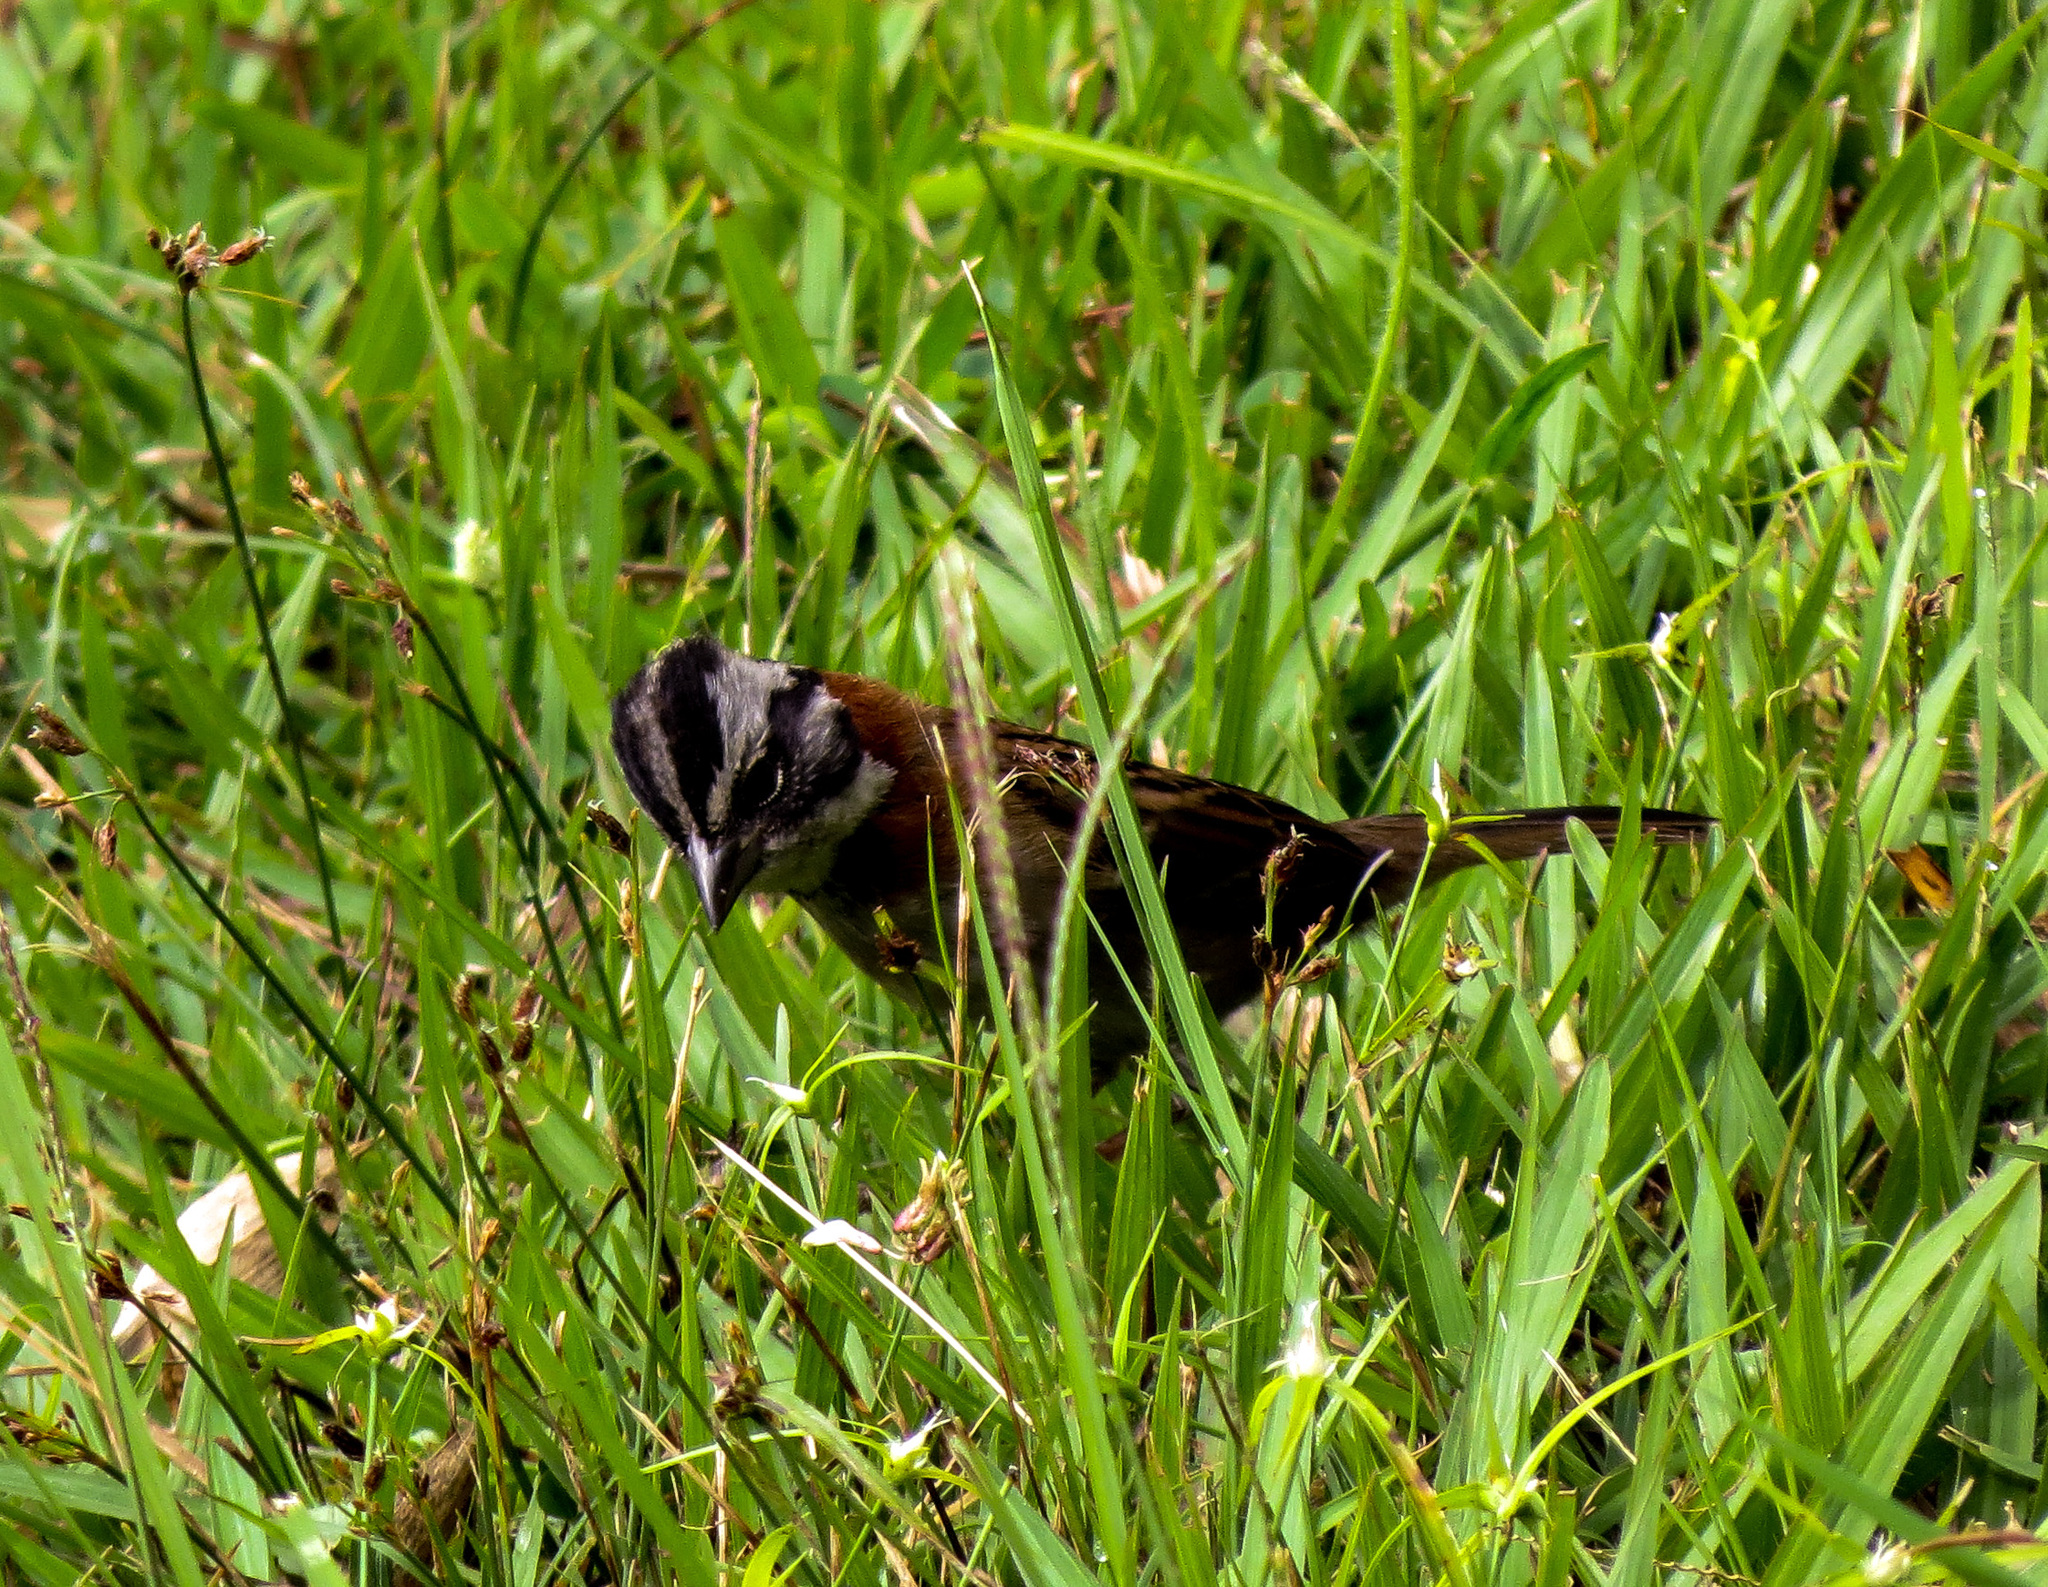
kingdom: Animalia
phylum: Chordata
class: Aves
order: Passeriformes
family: Passerellidae
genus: Zonotrichia
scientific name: Zonotrichia capensis
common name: Rufous-collared sparrow
